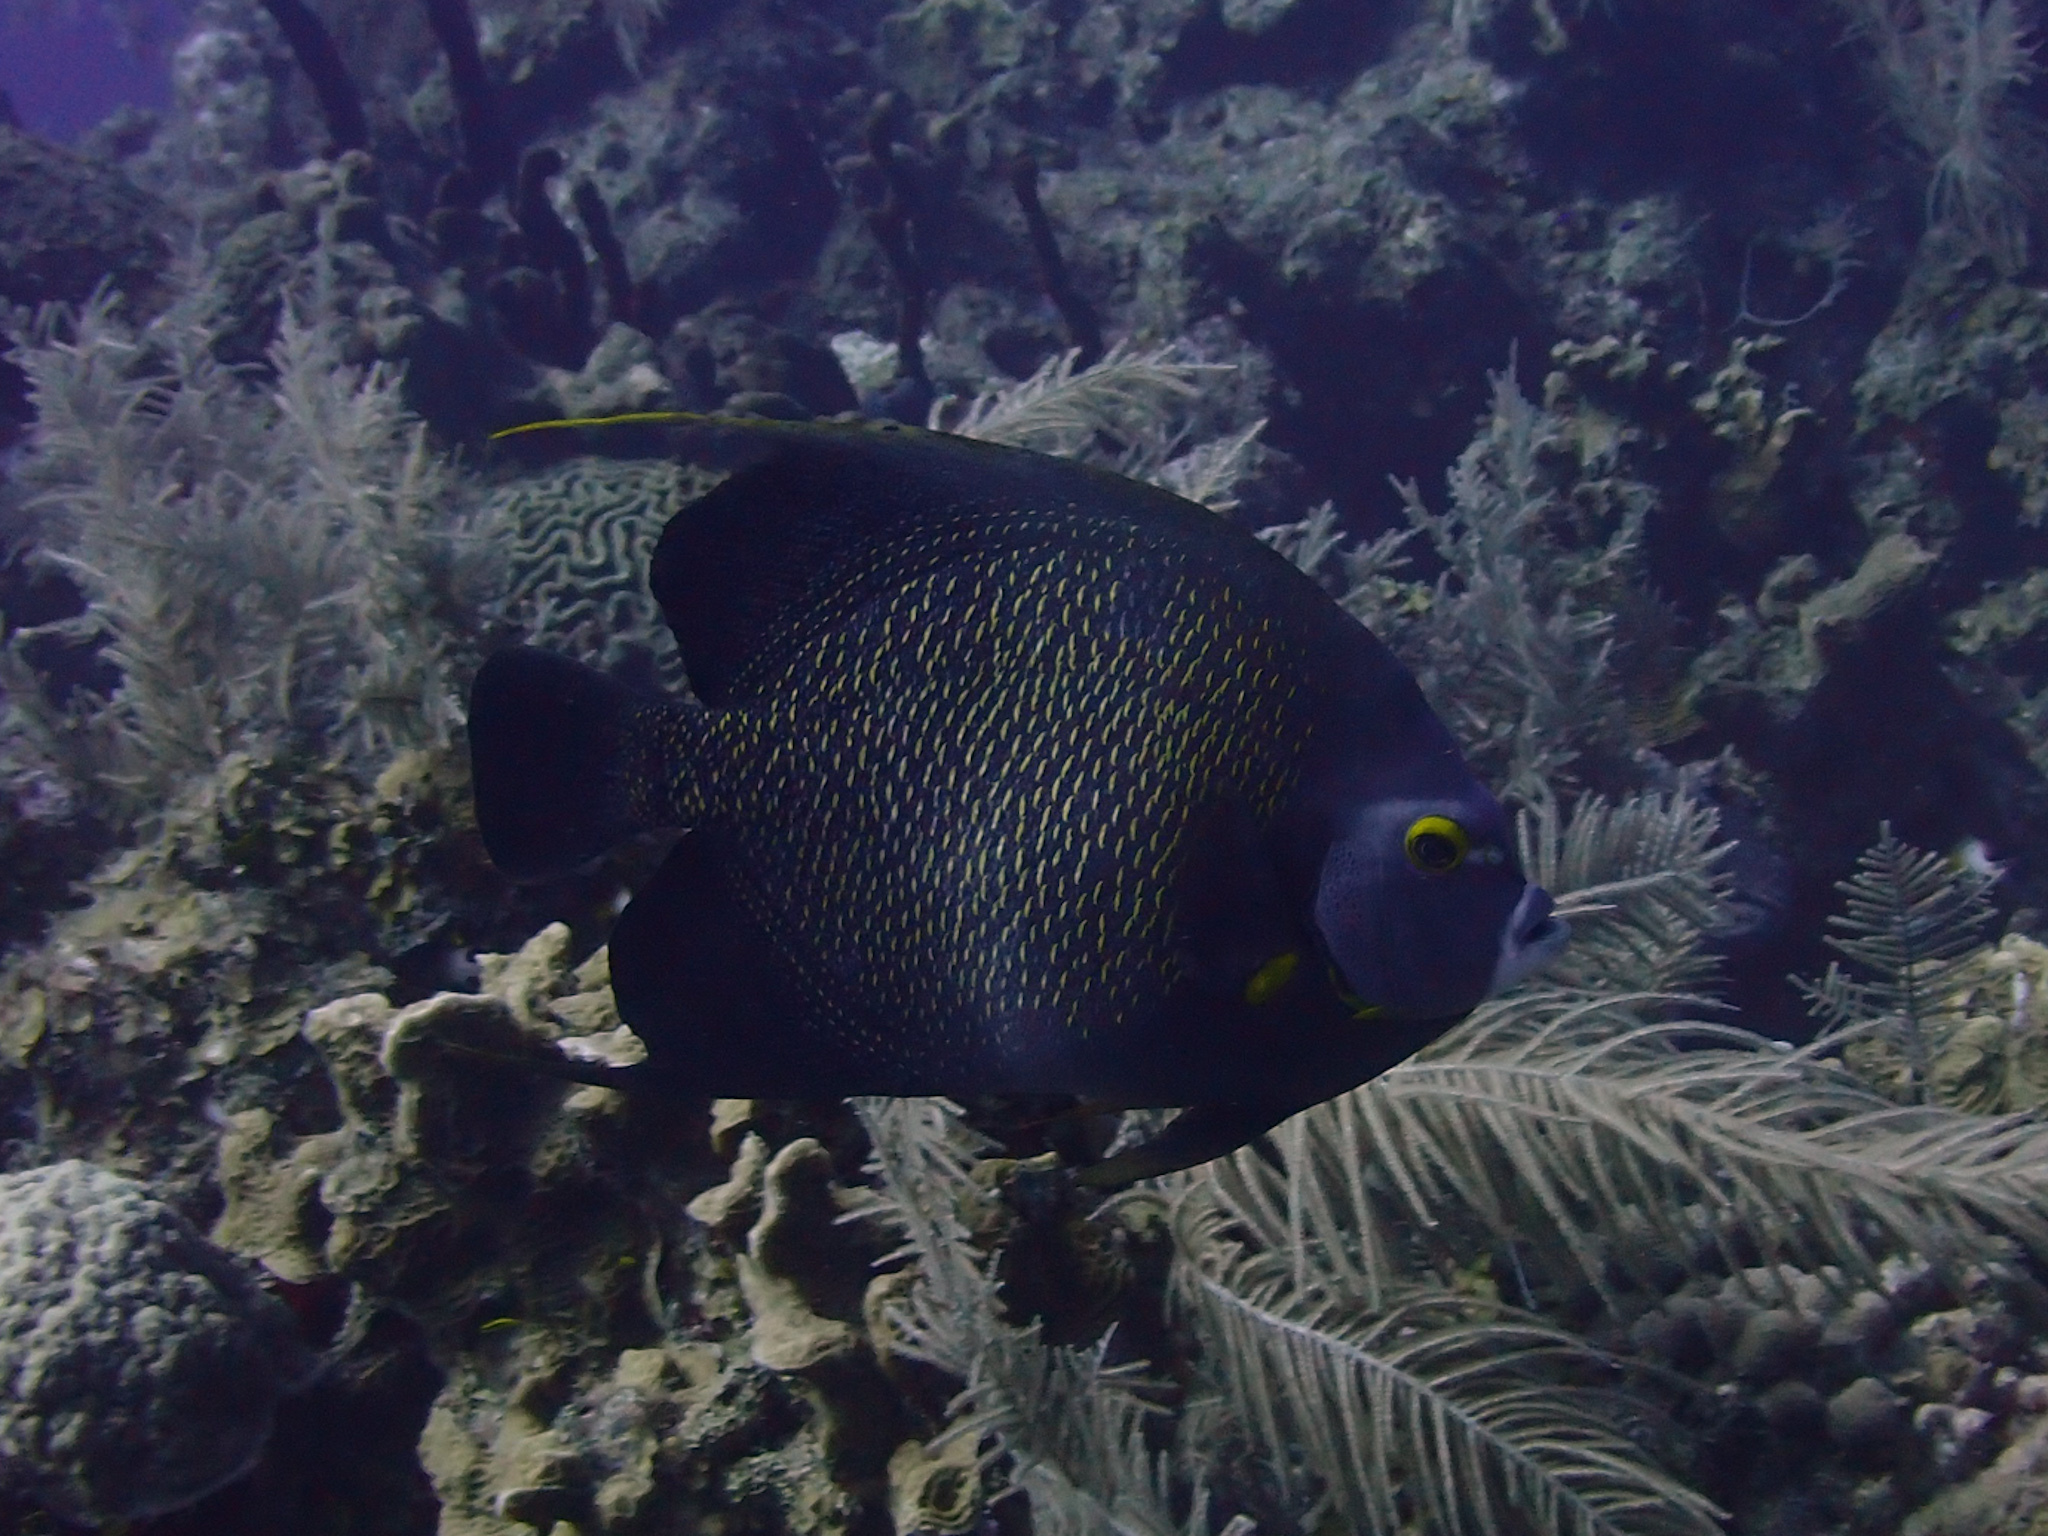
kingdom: Animalia
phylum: Chordata
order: Perciformes
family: Pomacanthidae
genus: Pomacanthus
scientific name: Pomacanthus paru
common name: French angelfish
